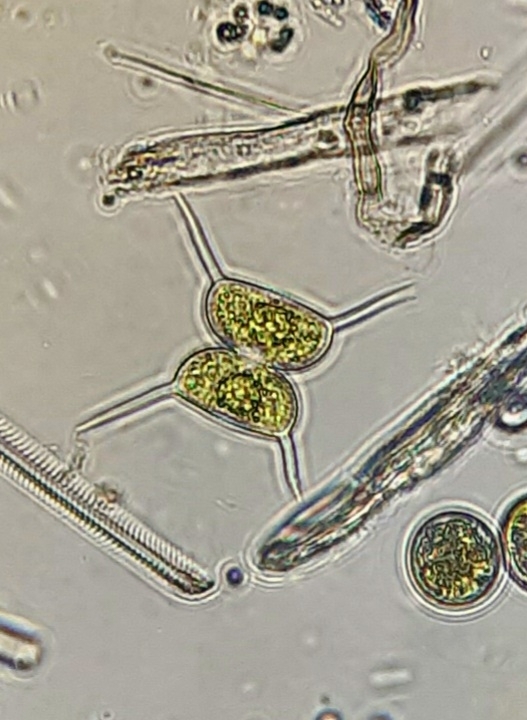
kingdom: Plantae
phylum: Charophyta
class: Conjugatophyceae
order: Desmidiales
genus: Staurodesmus
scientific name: Staurodesmus bulnheimii
